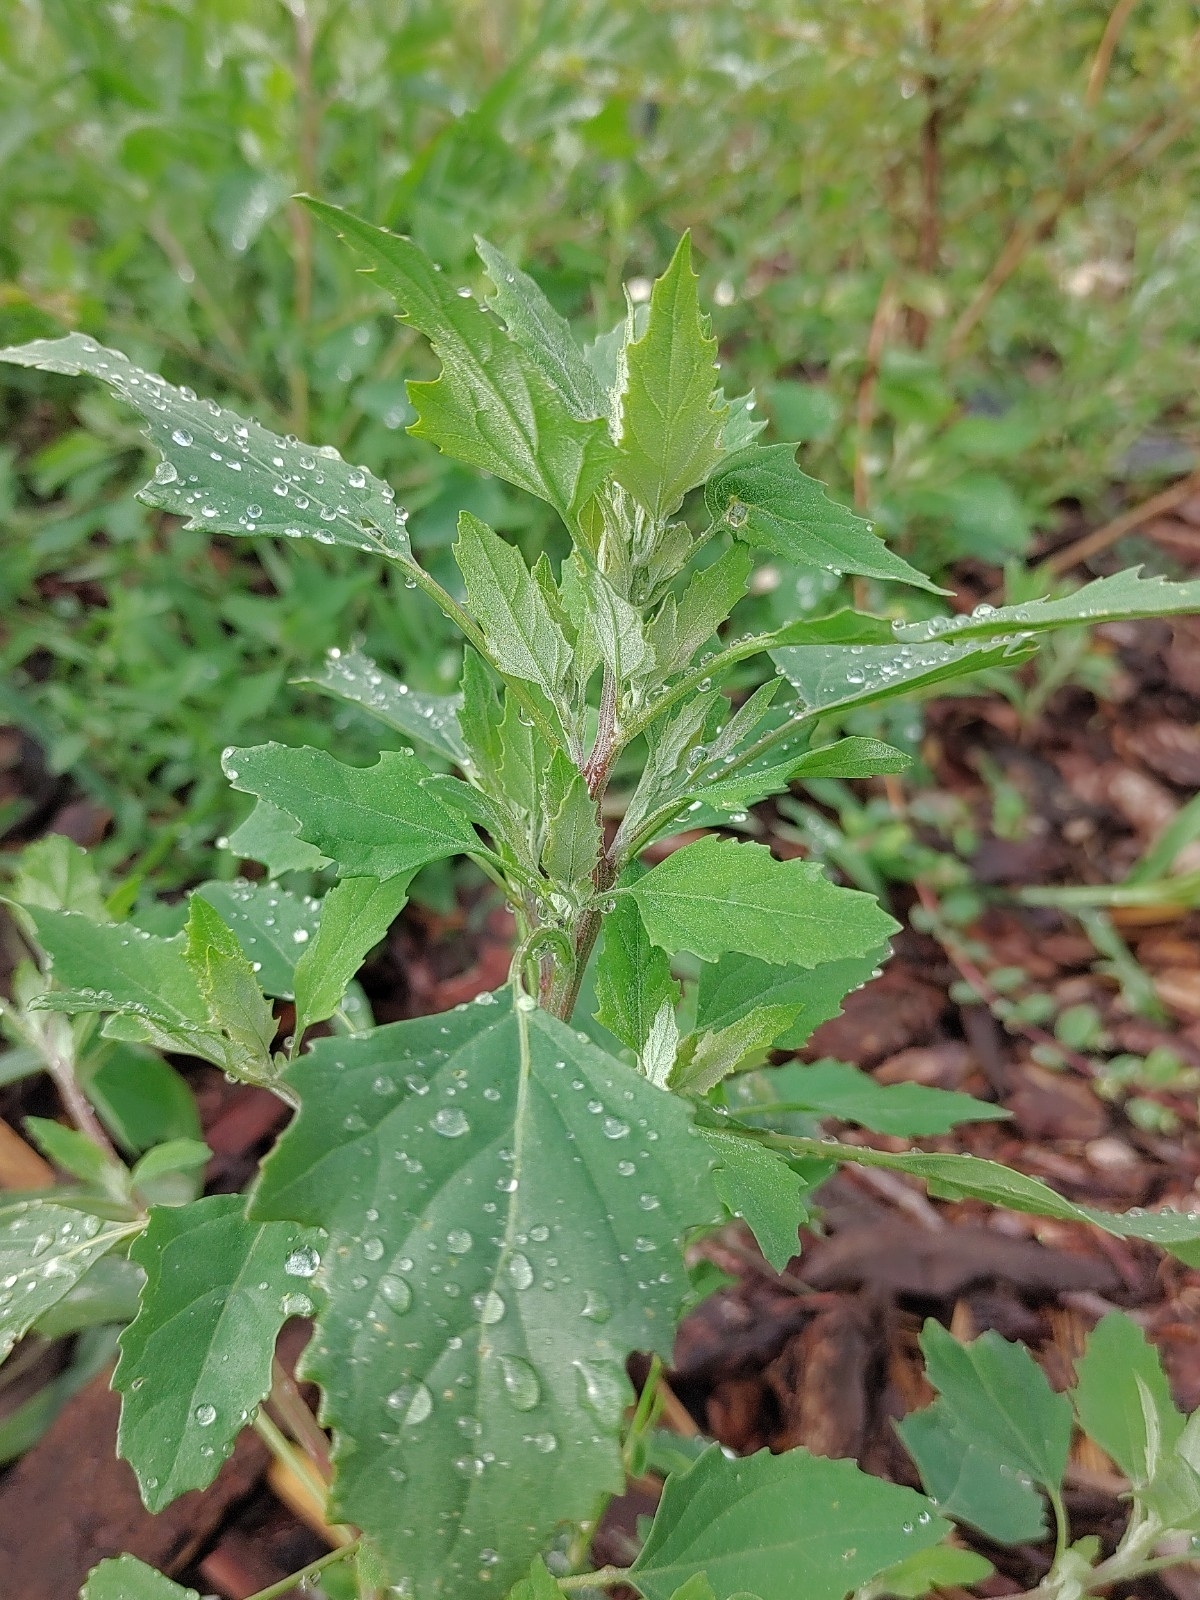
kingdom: Plantae
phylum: Tracheophyta
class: Magnoliopsida
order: Caryophyllales
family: Amaranthaceae
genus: Chenopodium
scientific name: Chenopodium album
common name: Fat-hen
